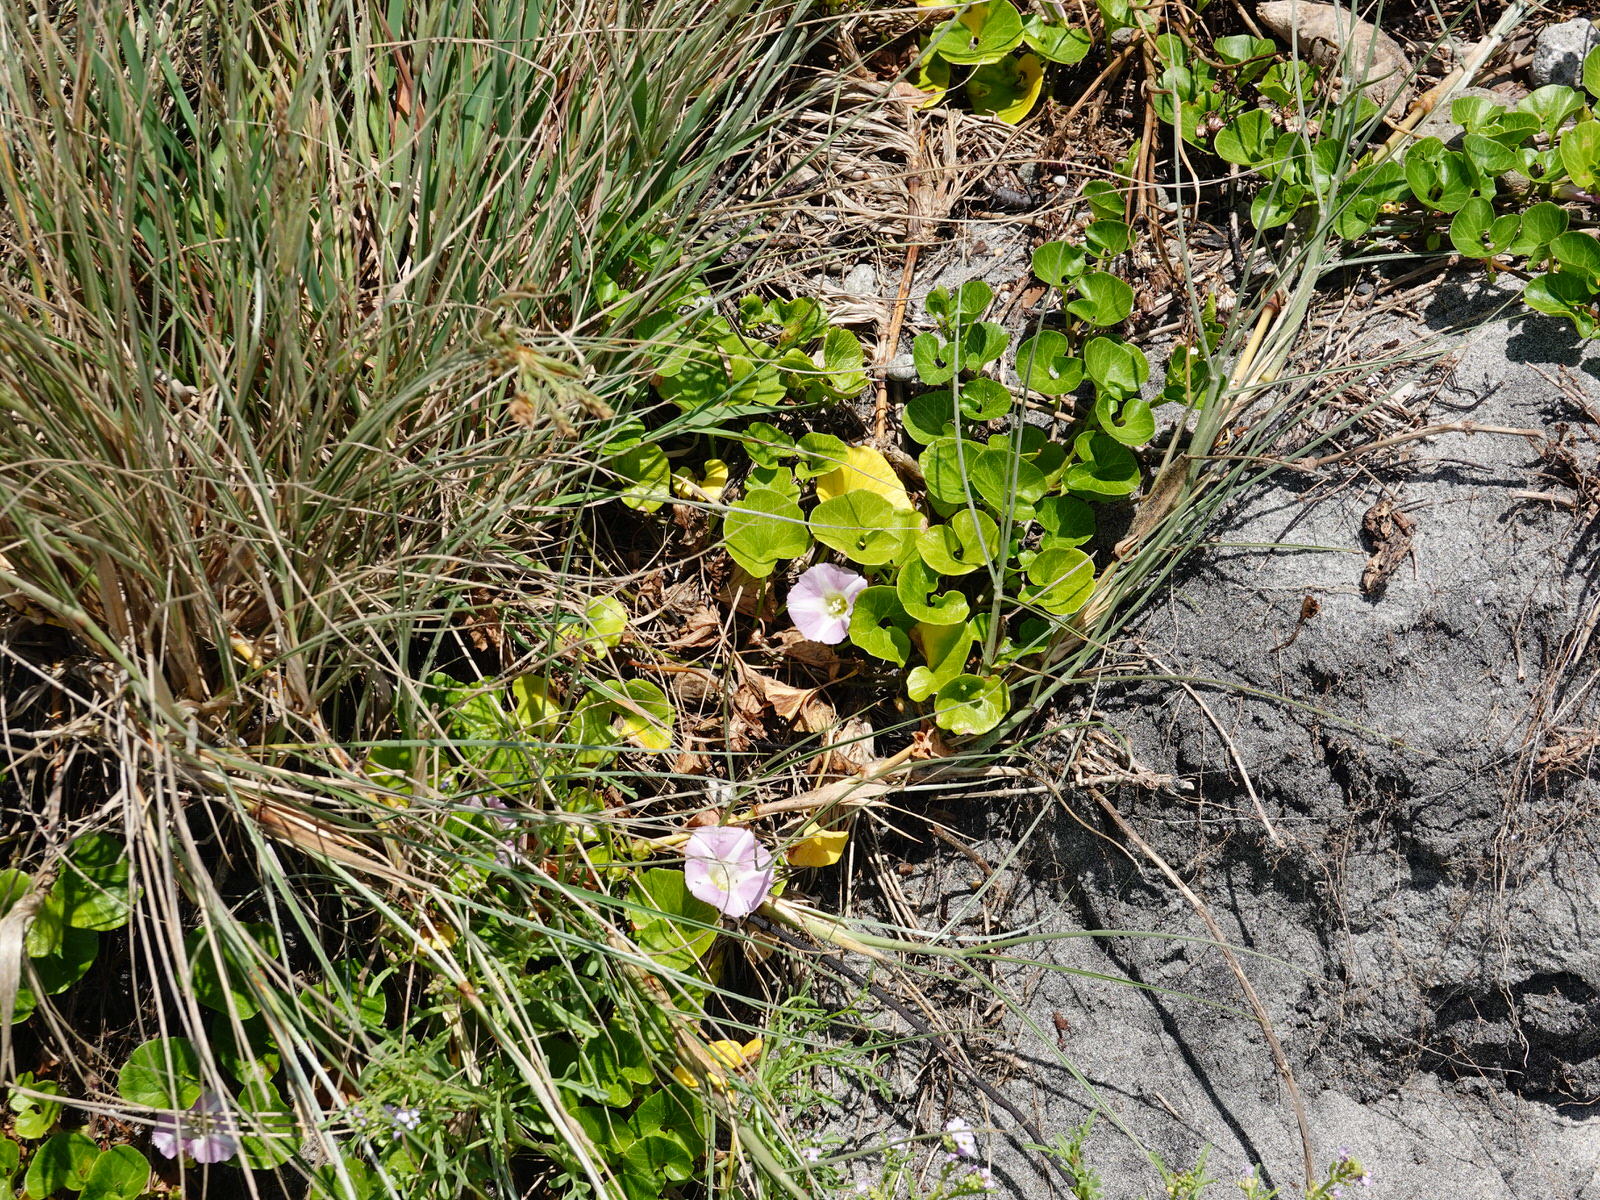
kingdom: Plantae
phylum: Tracheophyta
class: Magnoliopsida
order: Solanales
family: Convolvulaceae
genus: Calystegia
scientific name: Calystegia soldanella
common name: Sea bindweed
